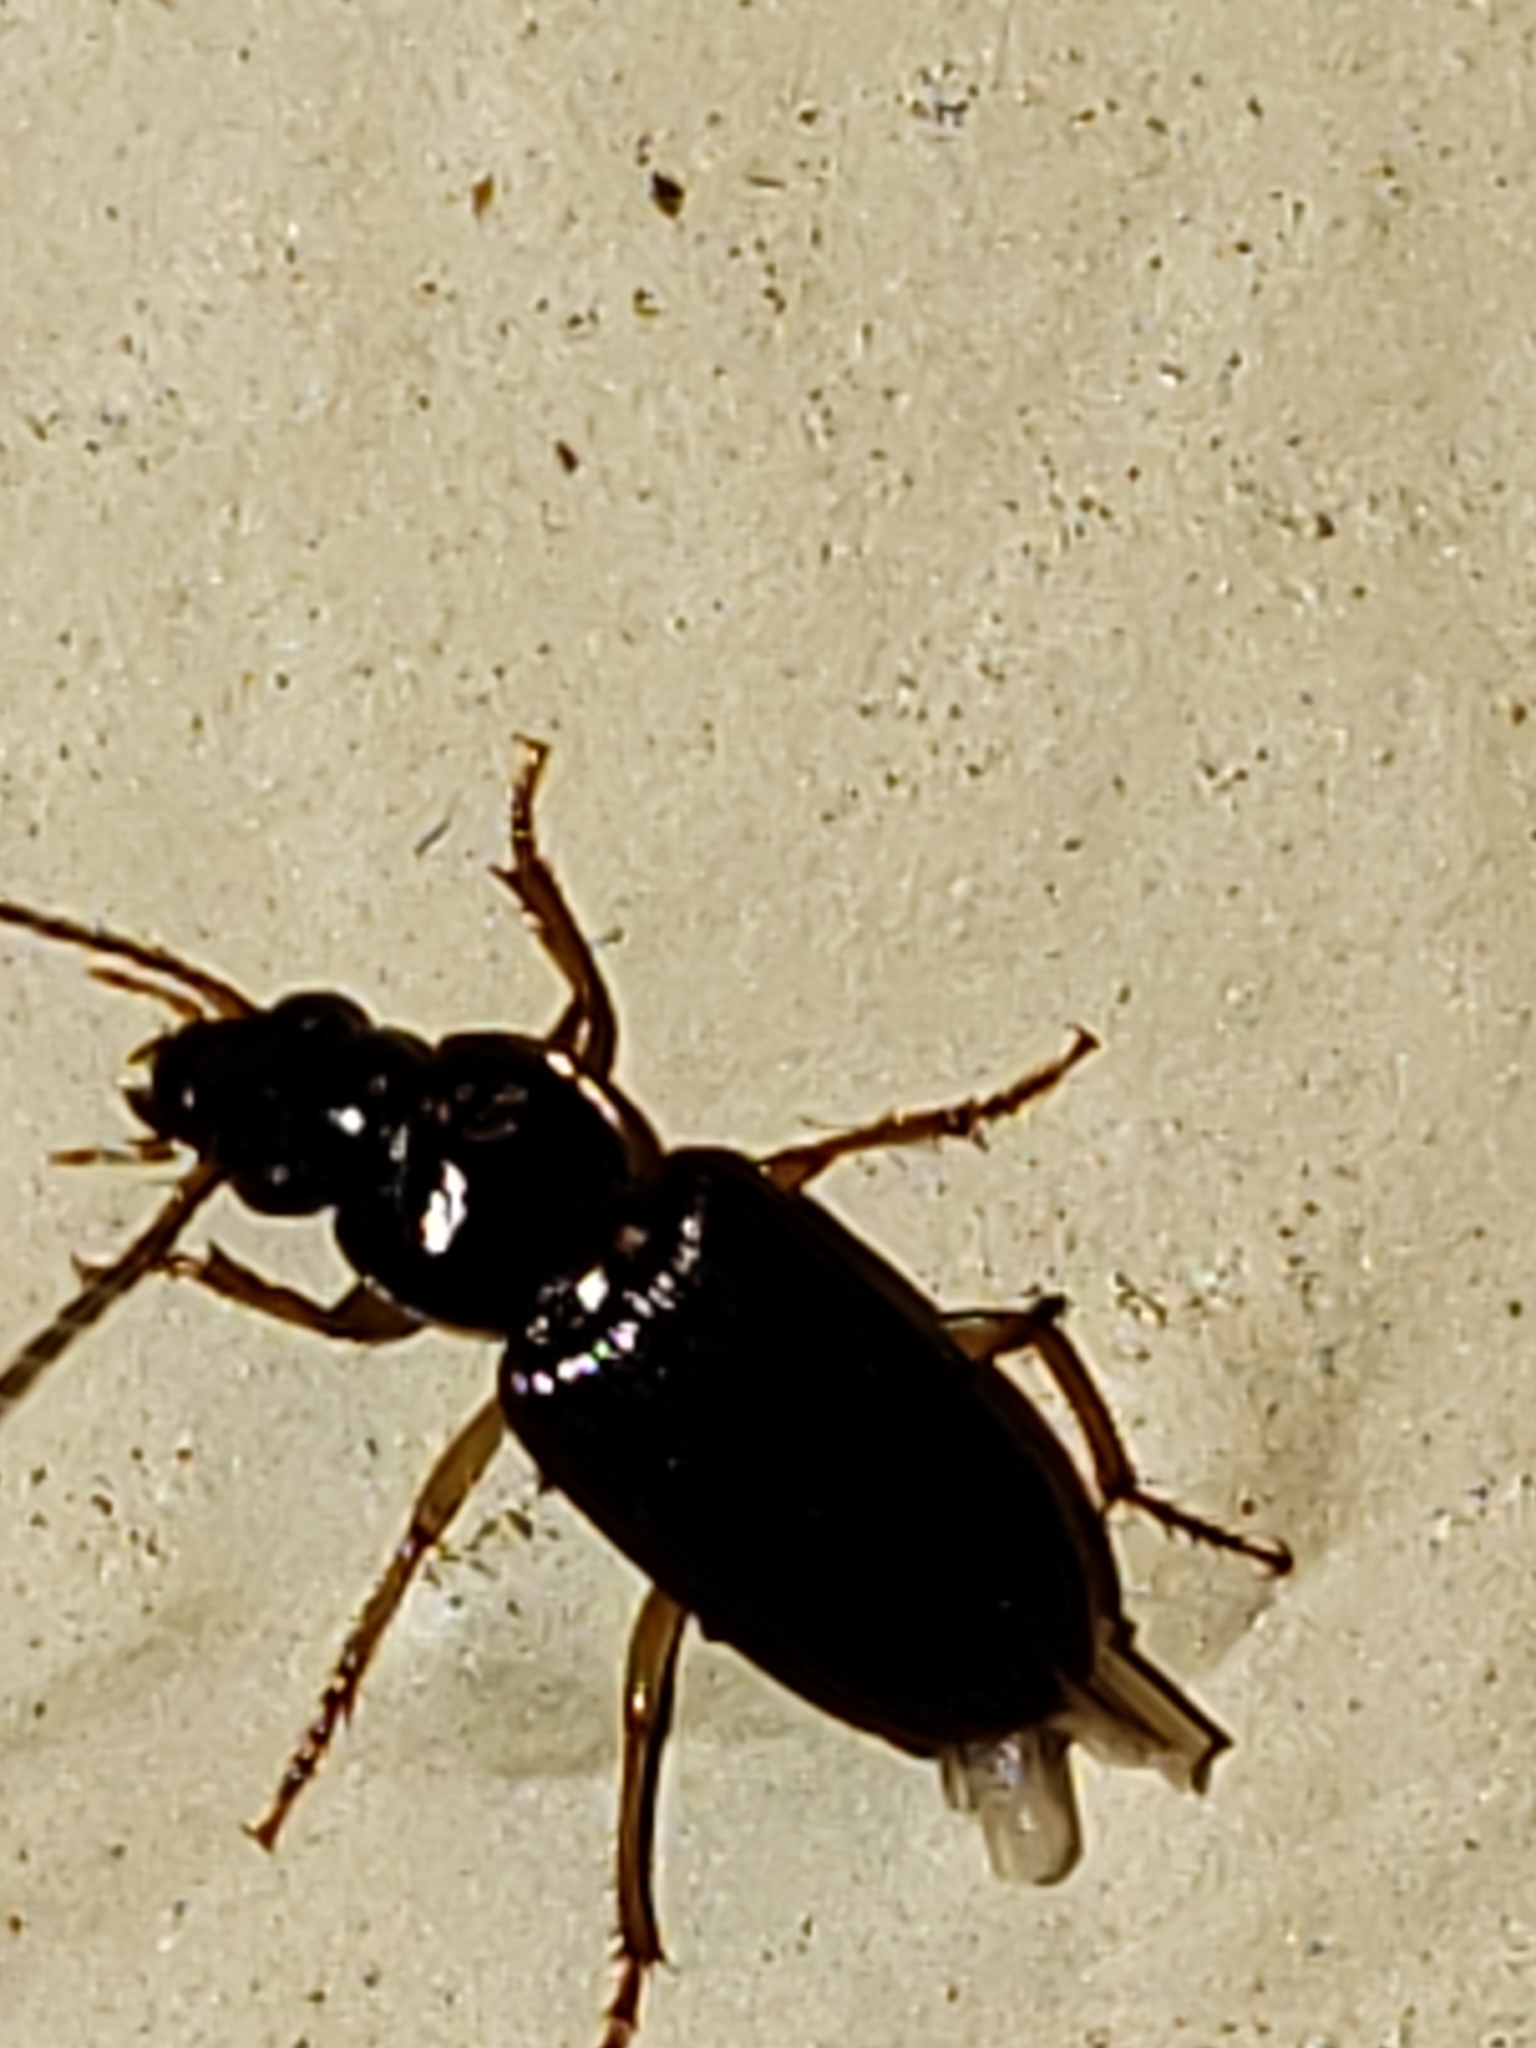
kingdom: Animalia
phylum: Arthropoda
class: Insecta
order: Coleoptera
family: Carabidae
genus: Stenolophus
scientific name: Stenolophus ochropezus
